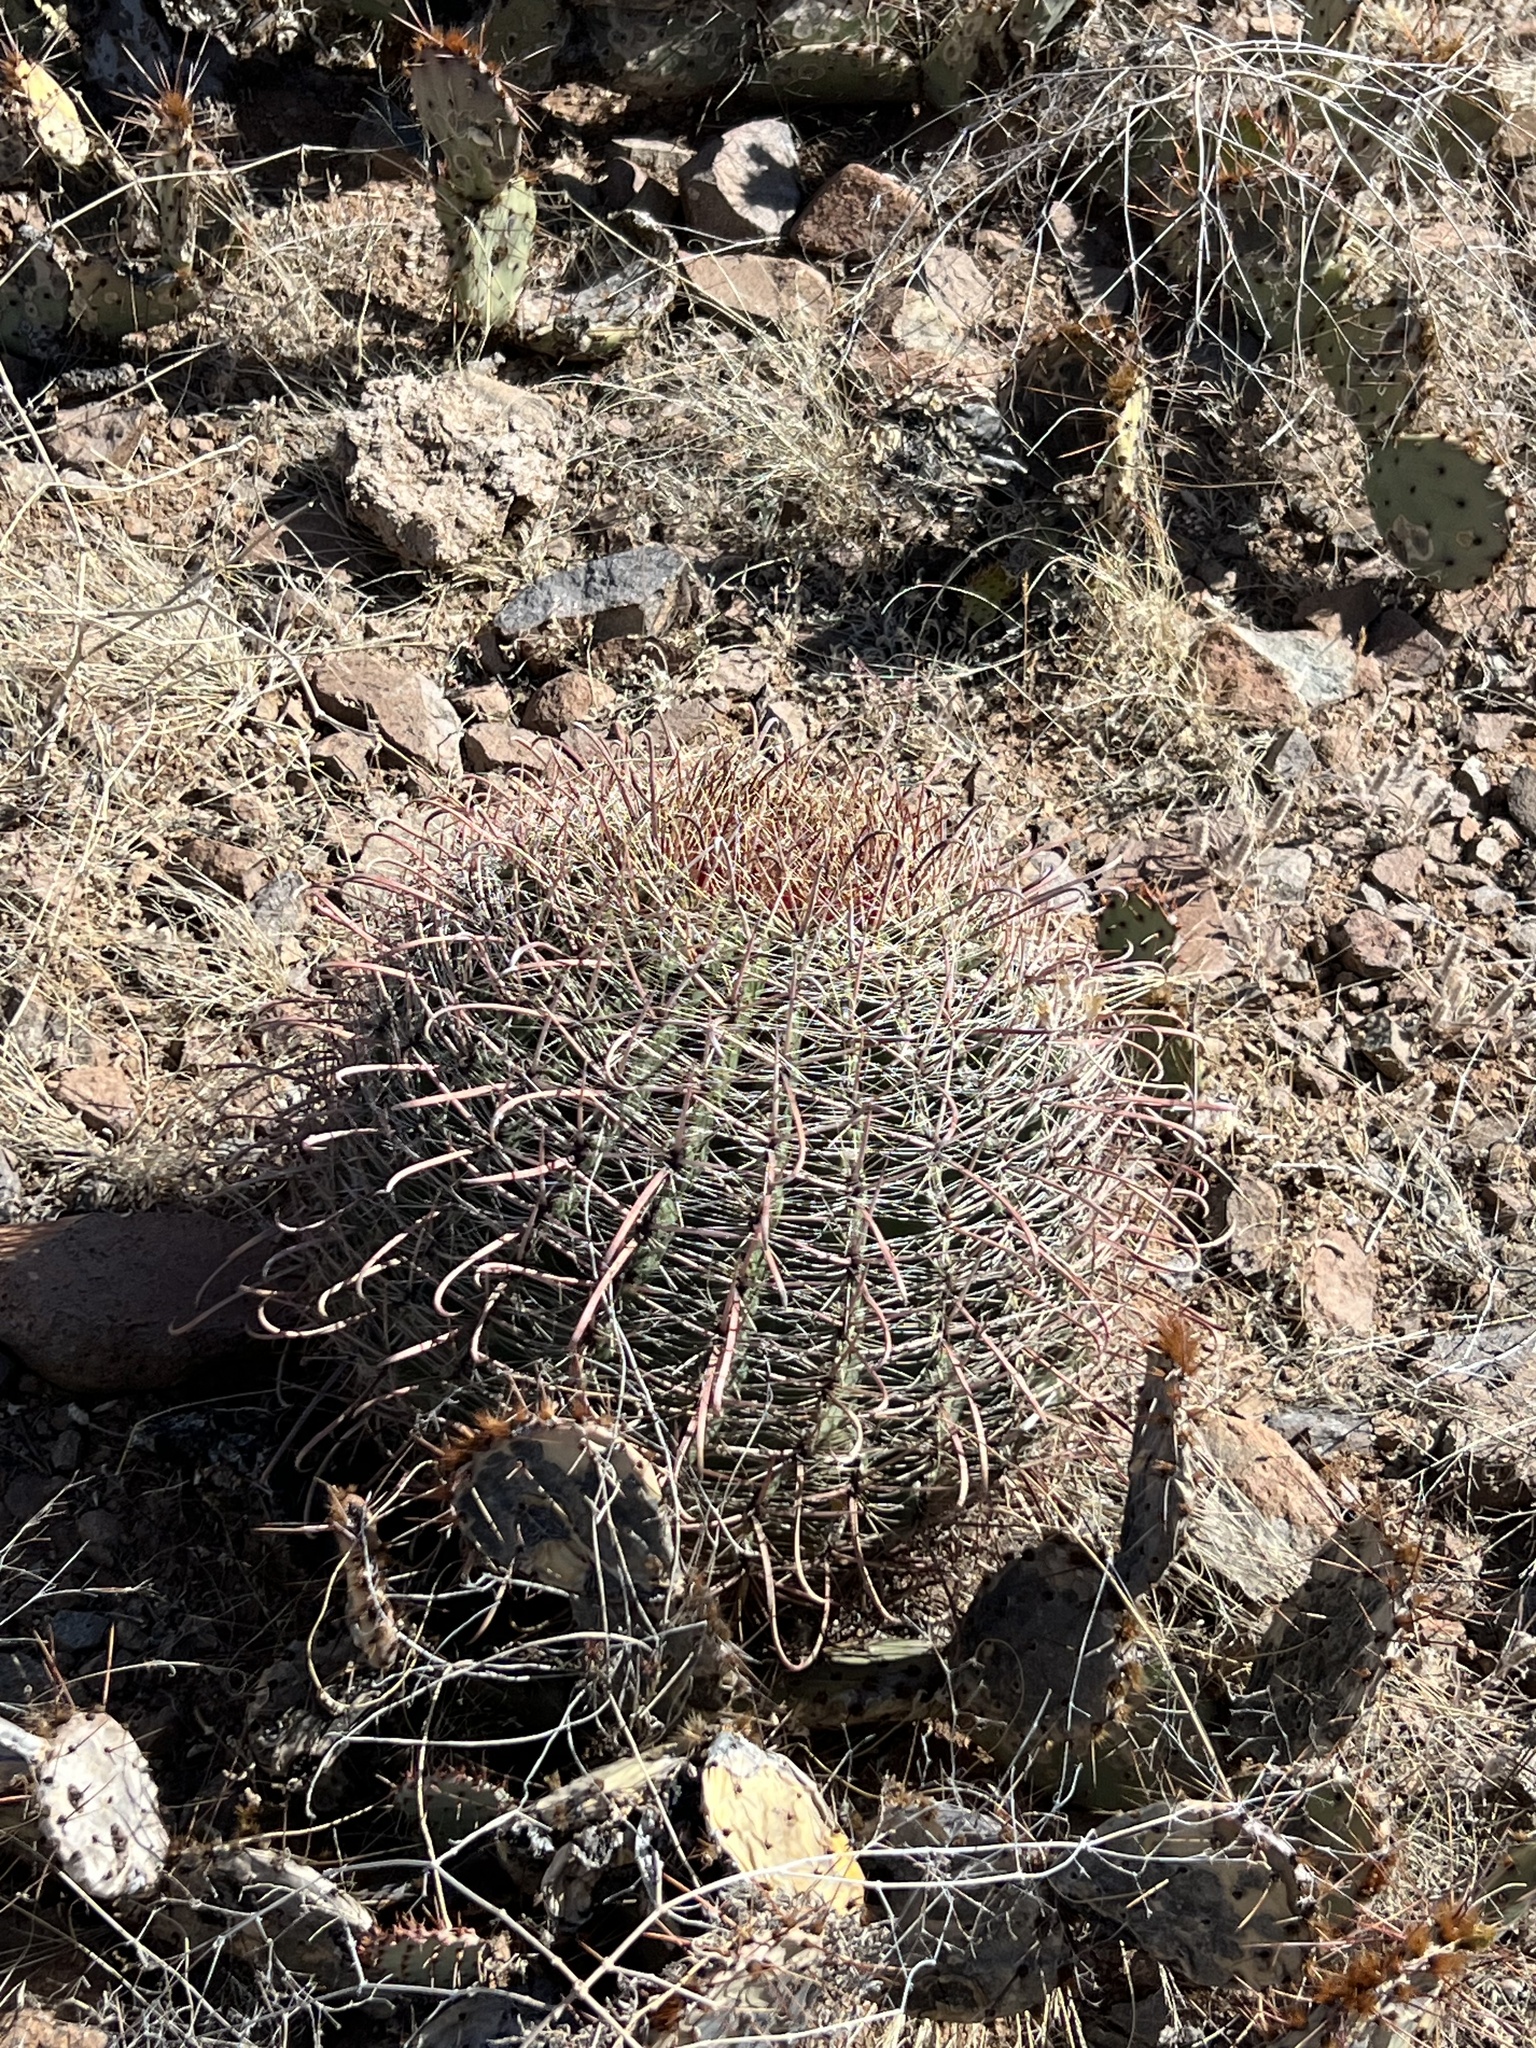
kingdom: Plantae
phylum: Tracheophyta
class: Magnoliopsida
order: Caryophyllales
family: Cactaceae
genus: Ferocactus
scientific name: Ferocactus wislizeni
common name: Candy barrel cactus
